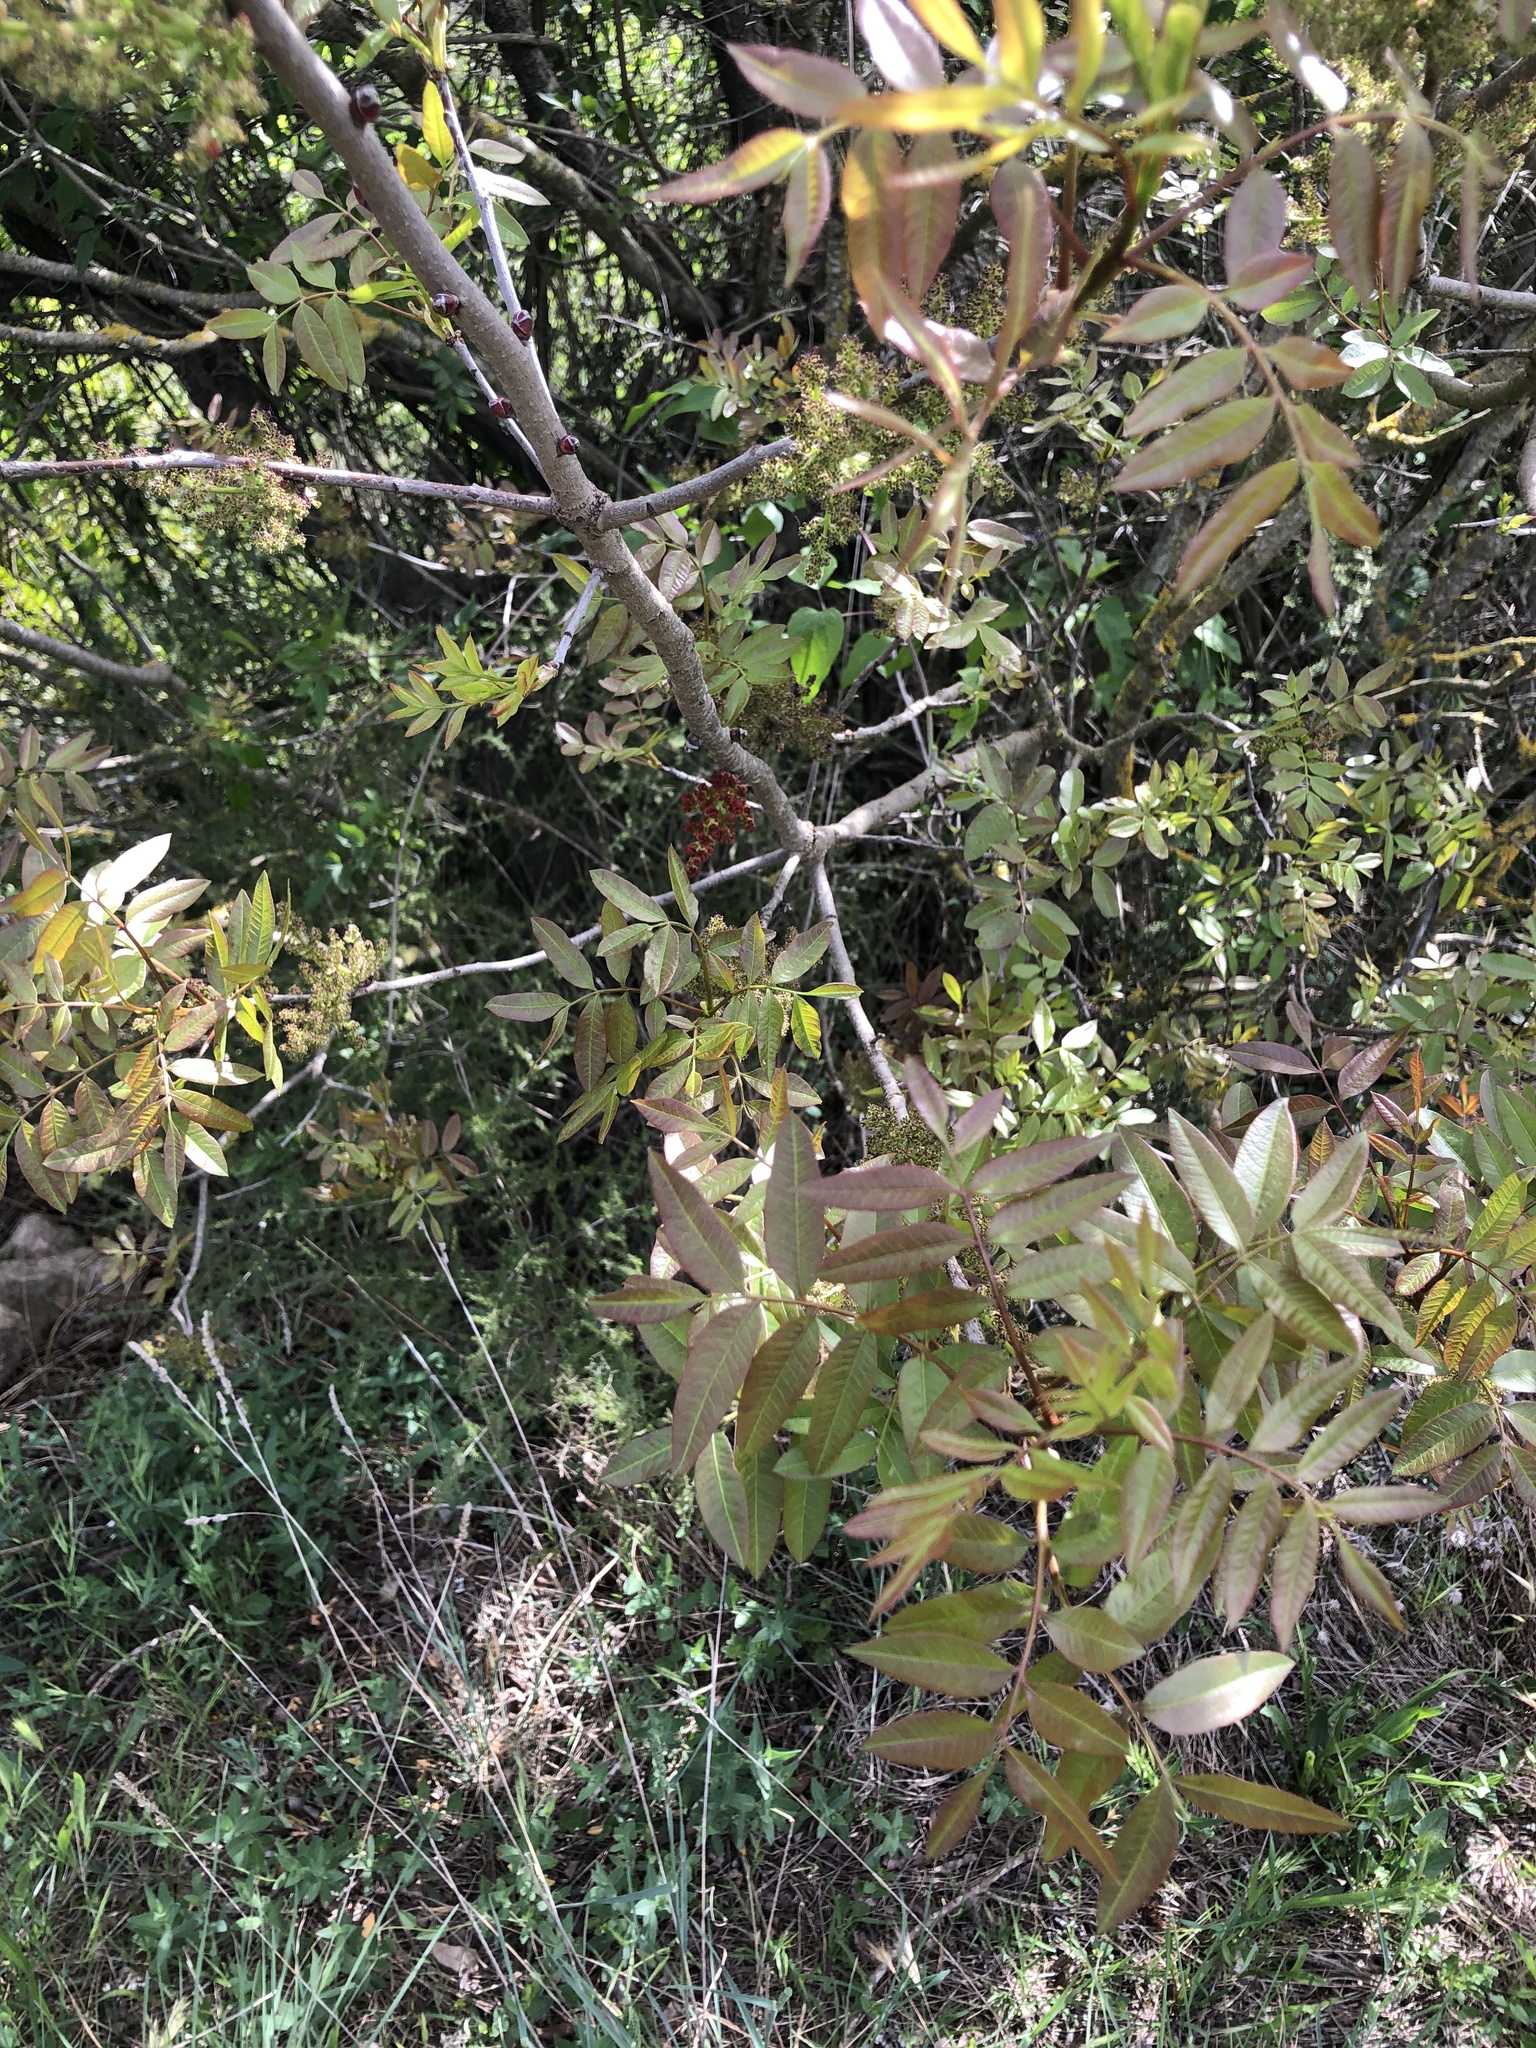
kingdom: Plantae
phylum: Tracheophyta
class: Magnoliopsida
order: Sapindales
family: Anacardiaceae
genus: Pistacia
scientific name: Pistacia terebinthus
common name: Terebinth
